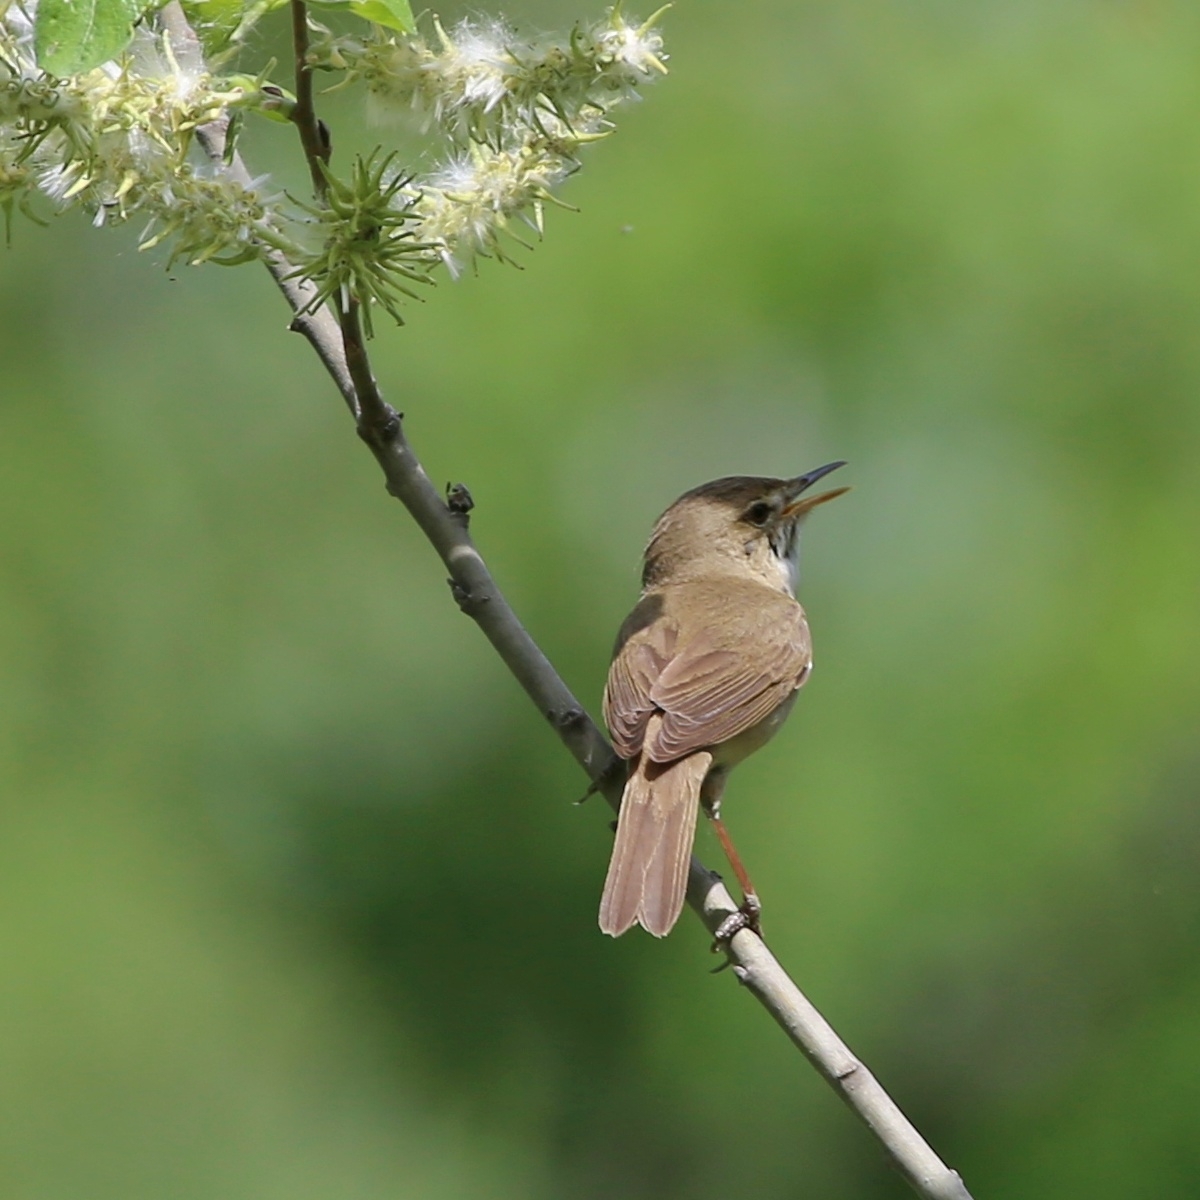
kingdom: Animalia
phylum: Chordata
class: Aves
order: Passeriformes
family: Acrocephalidae
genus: Acrocephalus
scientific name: Acrocephalus dumetorum
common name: Blyth's reed warbler
